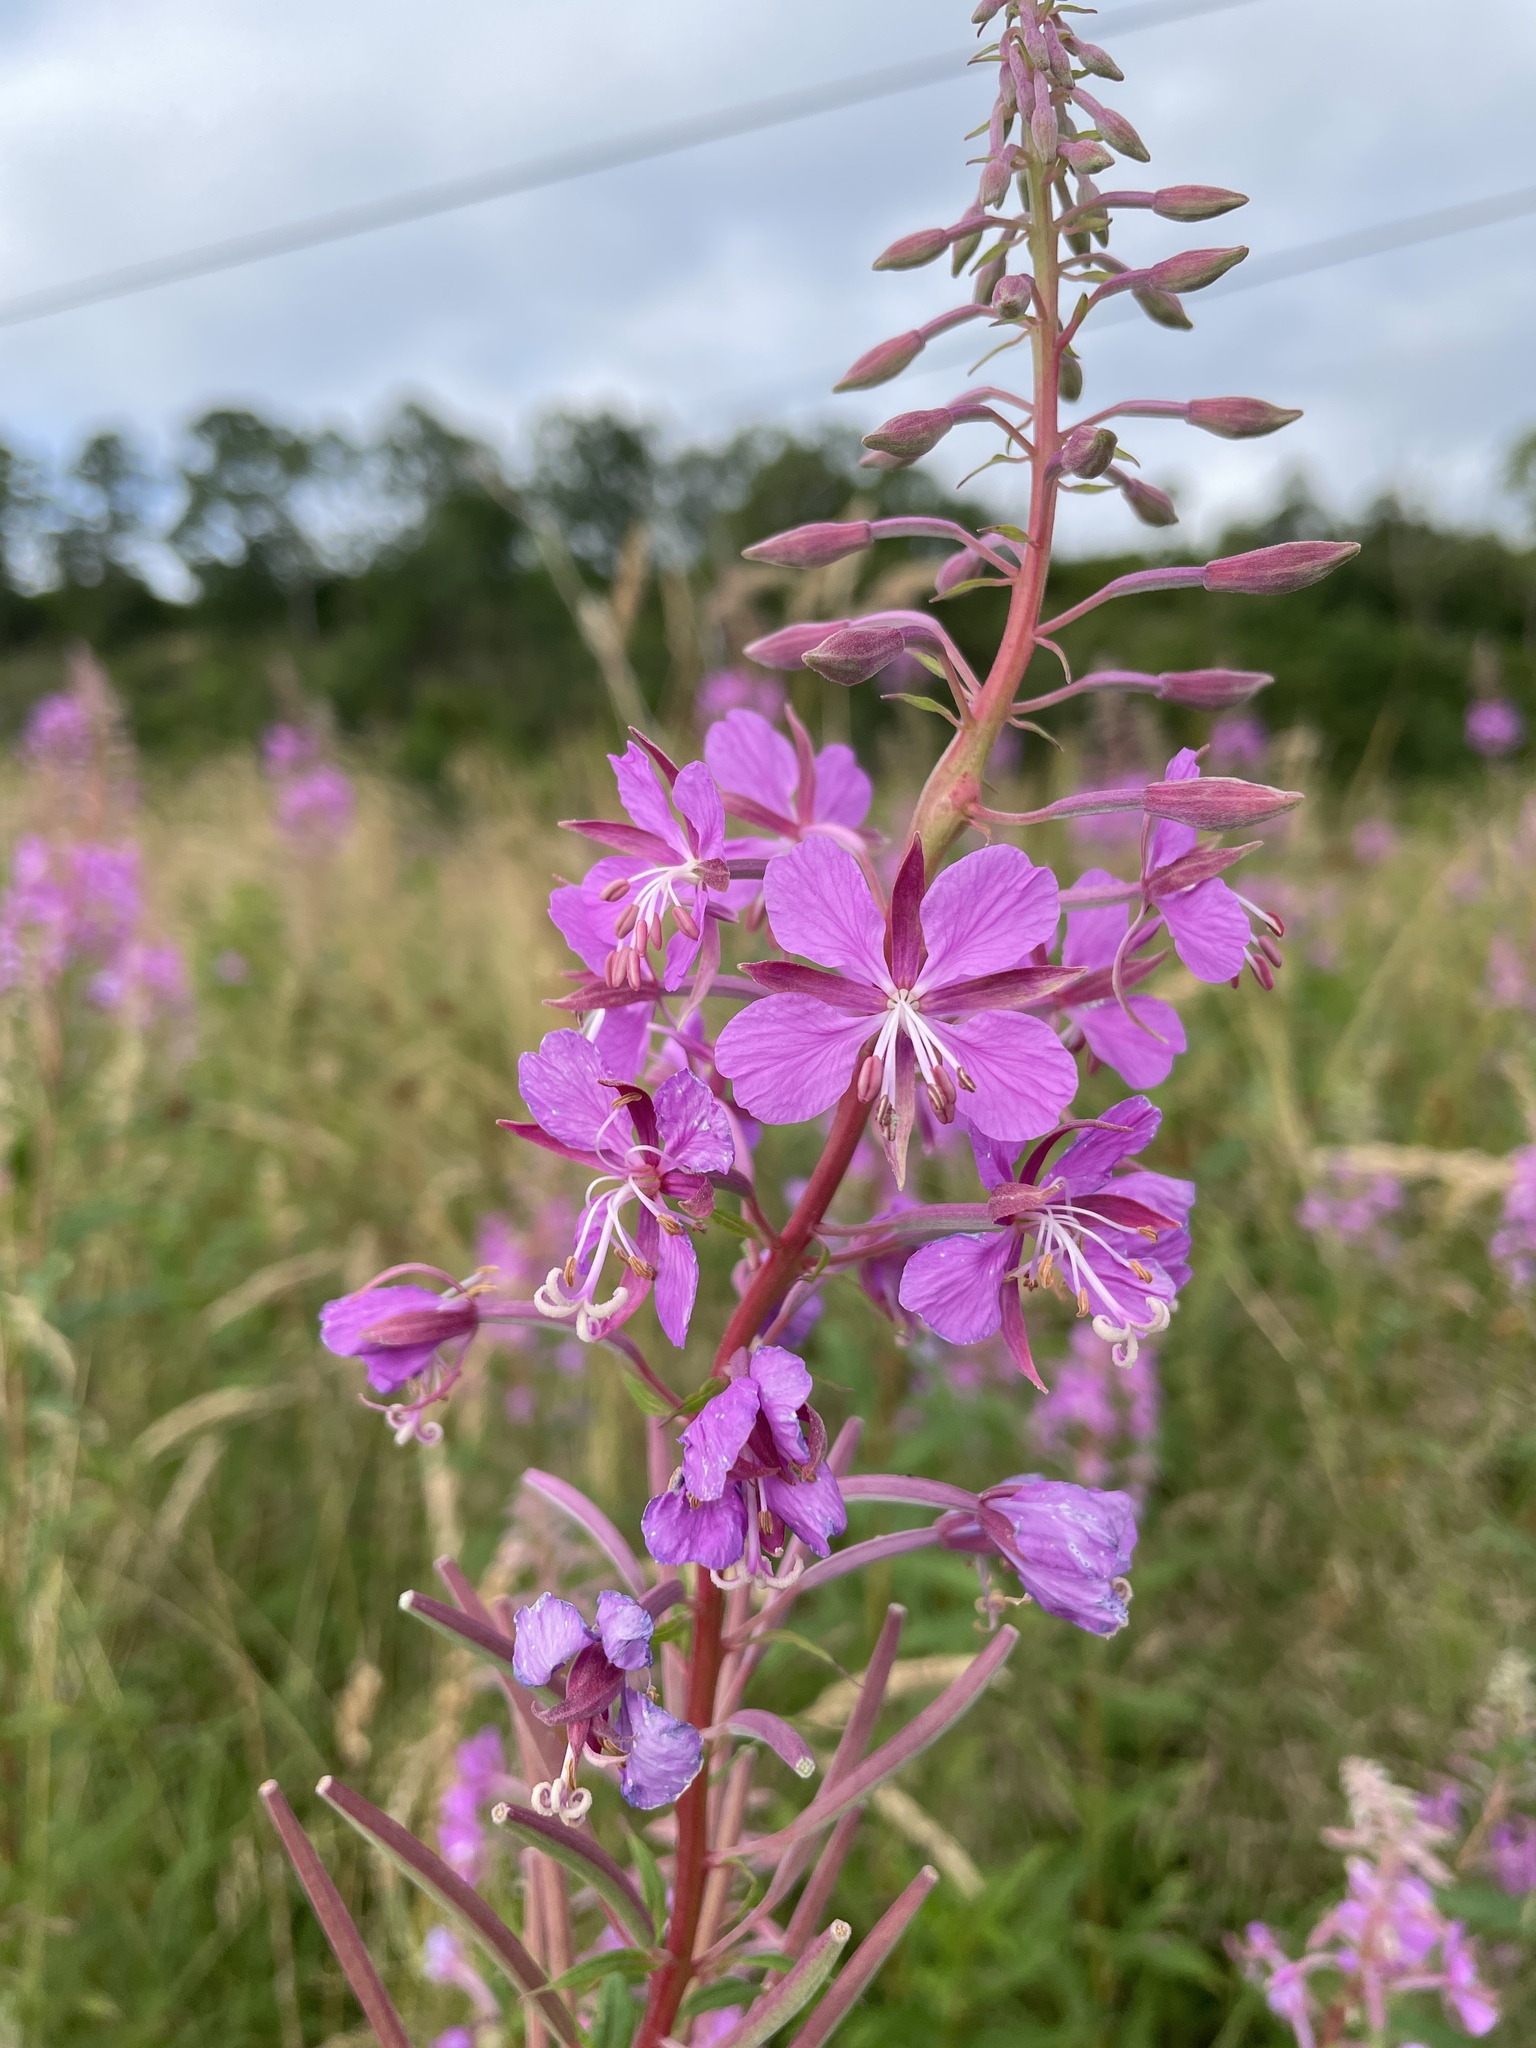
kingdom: Plantae
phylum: Tracheophyta
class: Magnoliopsida
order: Myrtales
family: Onagraceae
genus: Chamaenerion
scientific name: Chamaenerion angustifolium
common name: Fireweed
